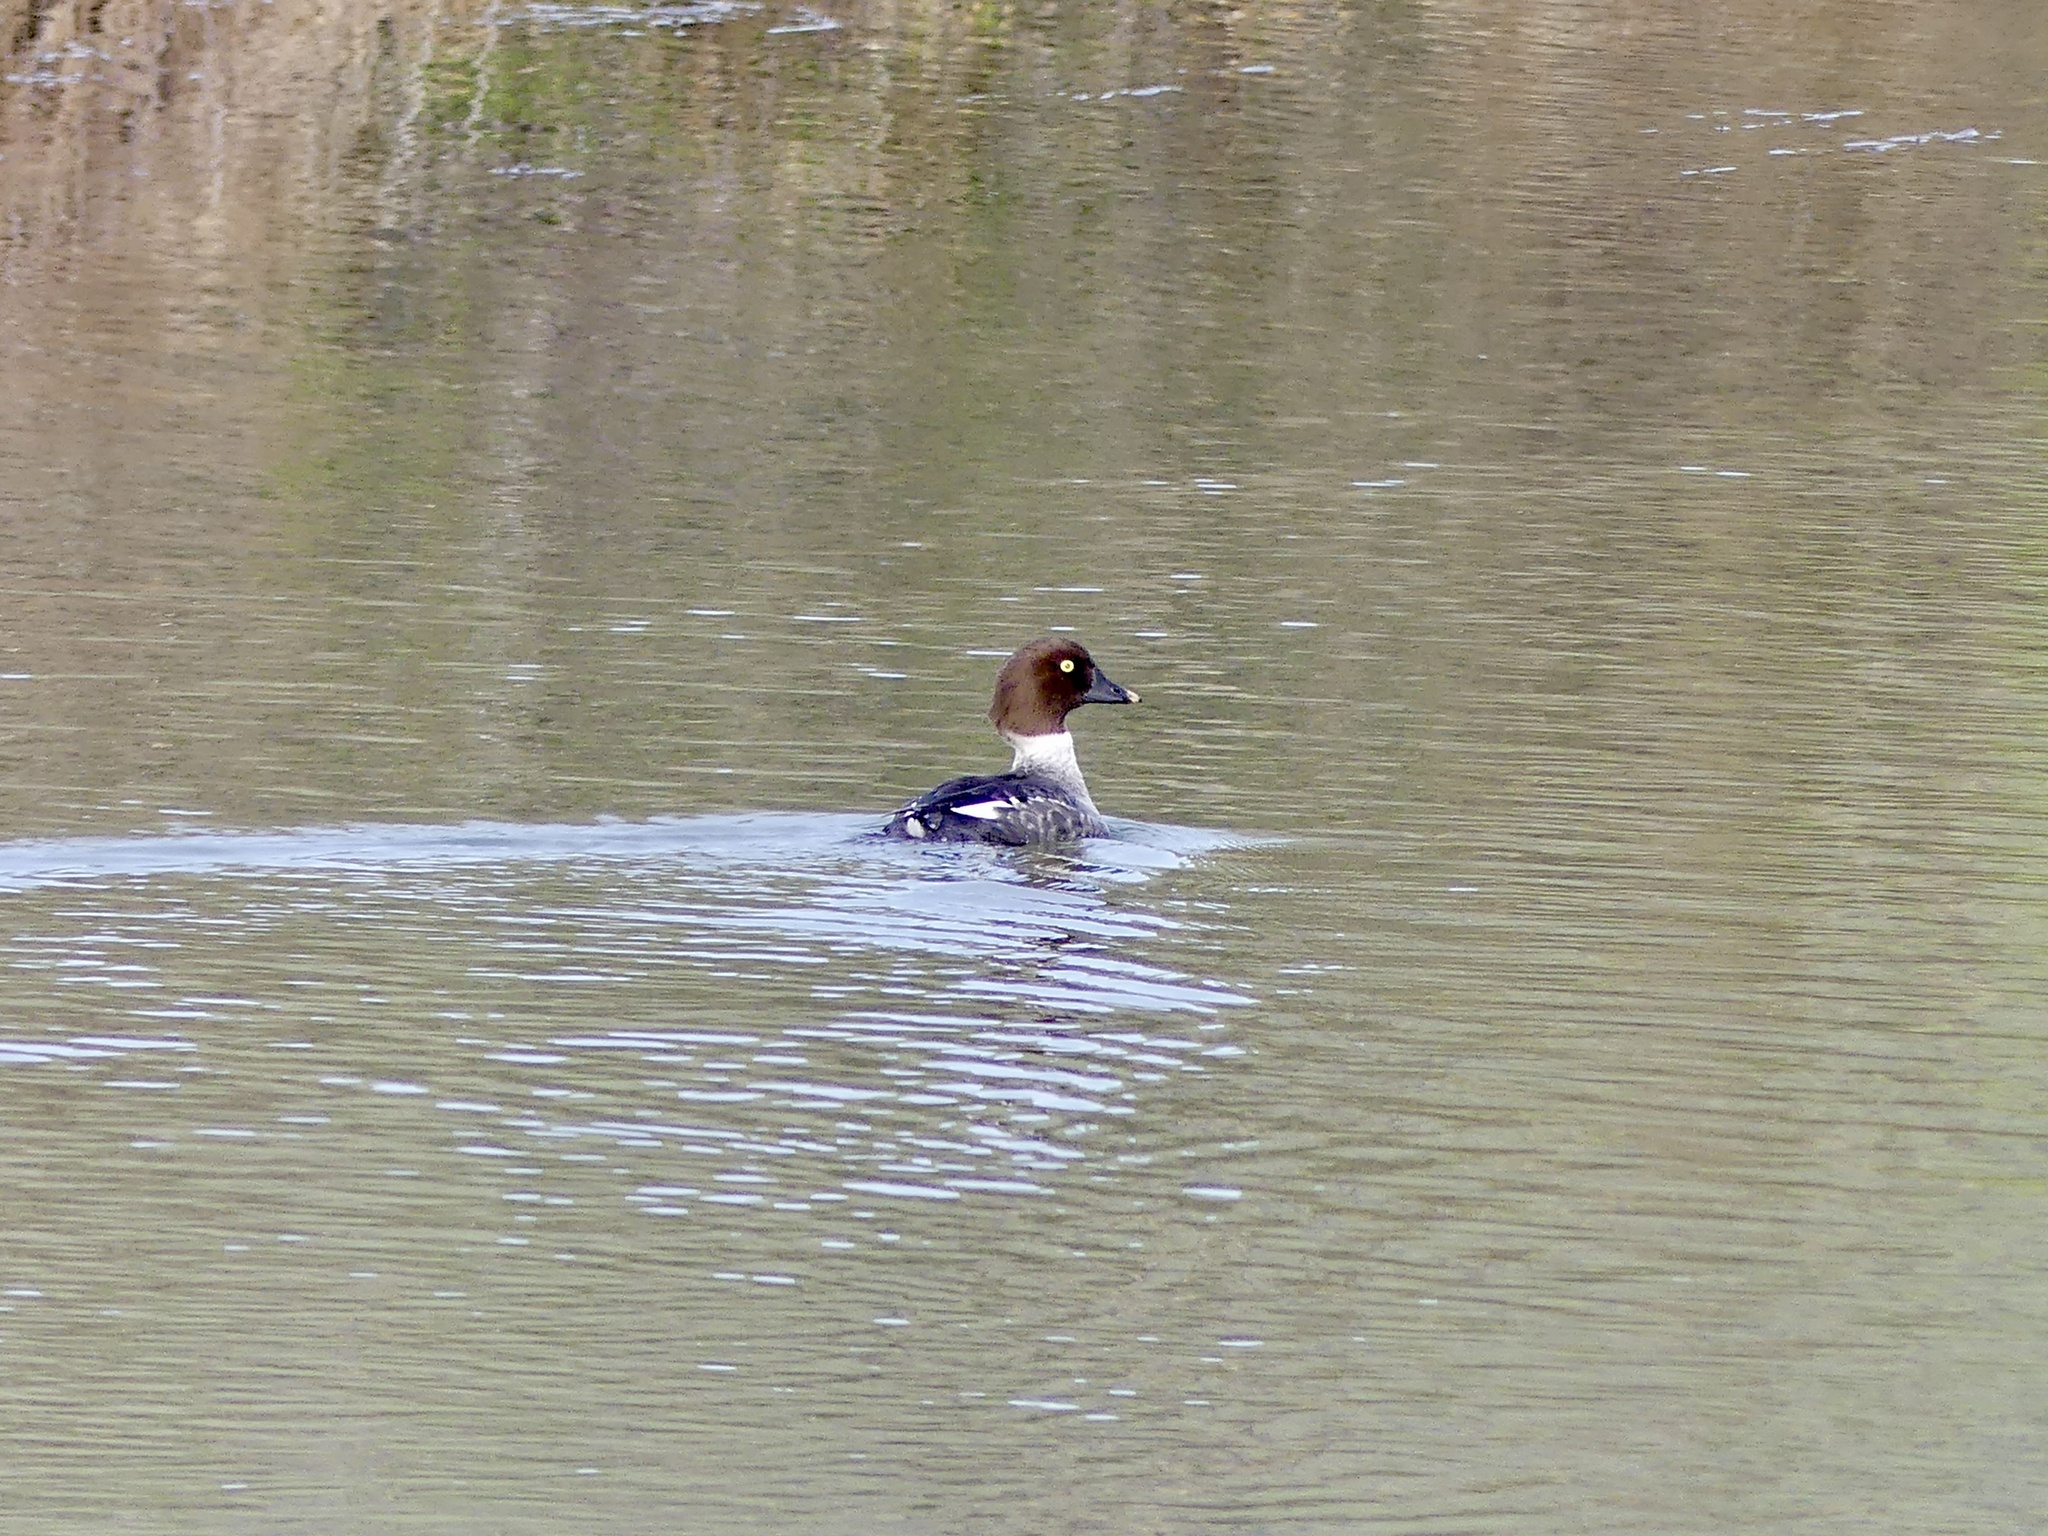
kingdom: Animalia
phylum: Chordata
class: Aves
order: Anseriformes
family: Anatidae
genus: Bucephala
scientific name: Bucephala clangula
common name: Common goldeneye
